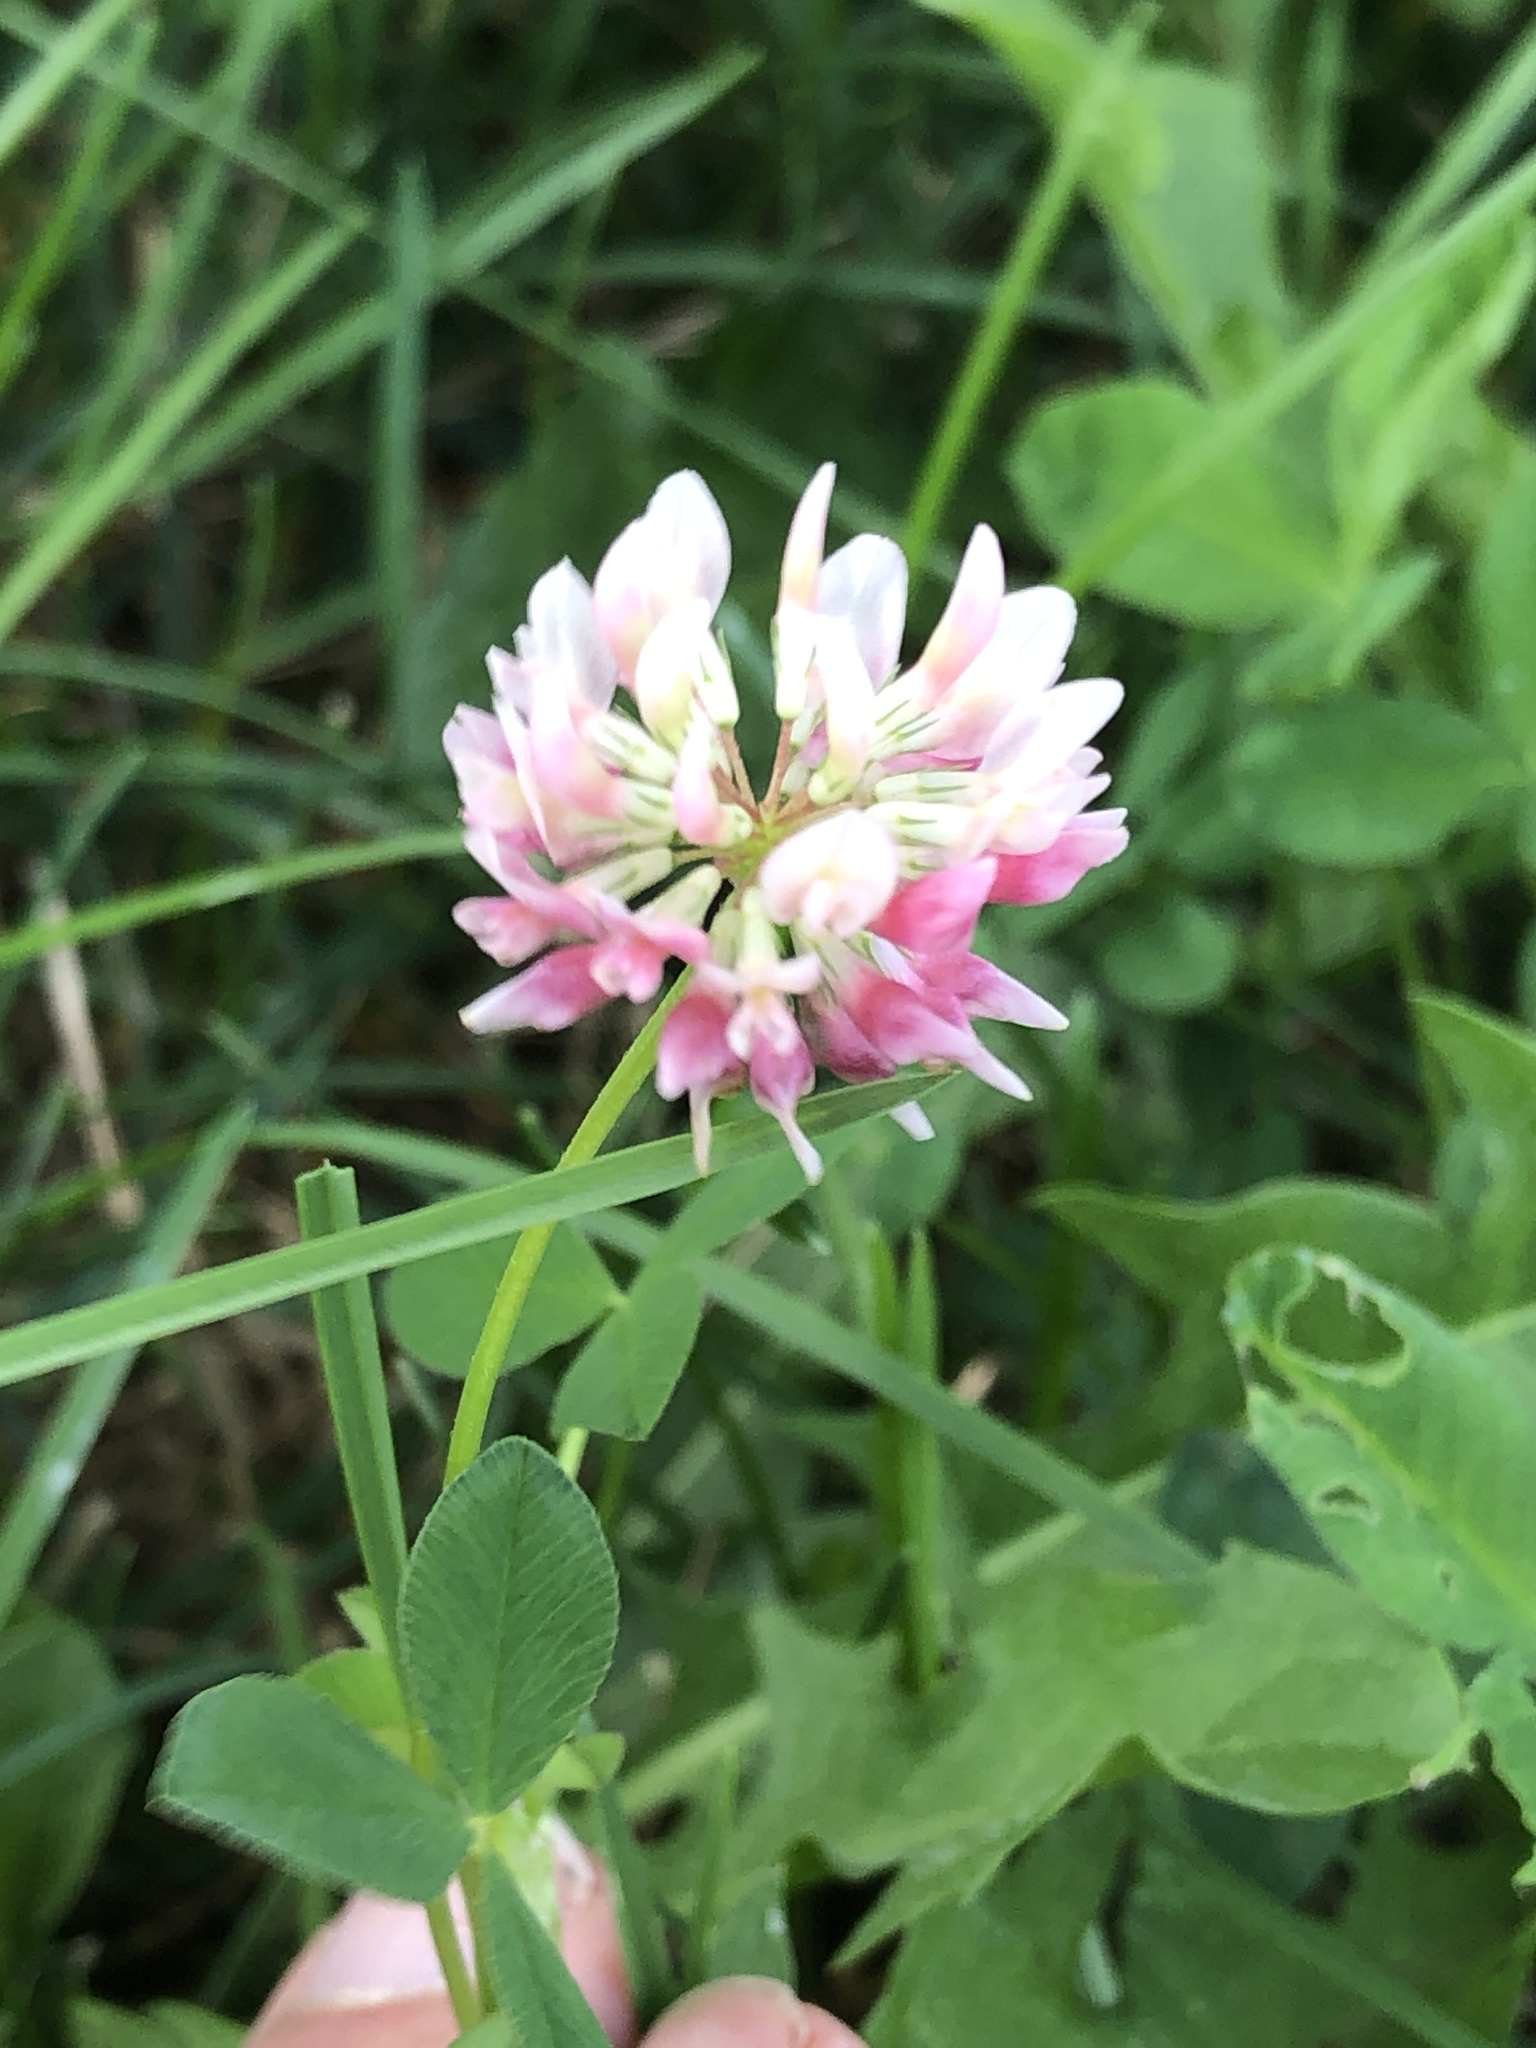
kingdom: Plantae
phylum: Tracheophyta
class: Magnoliopsida
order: Fabales
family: Fabaceae
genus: Trifolium
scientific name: Trifolium hybridum
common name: Alsike clover
